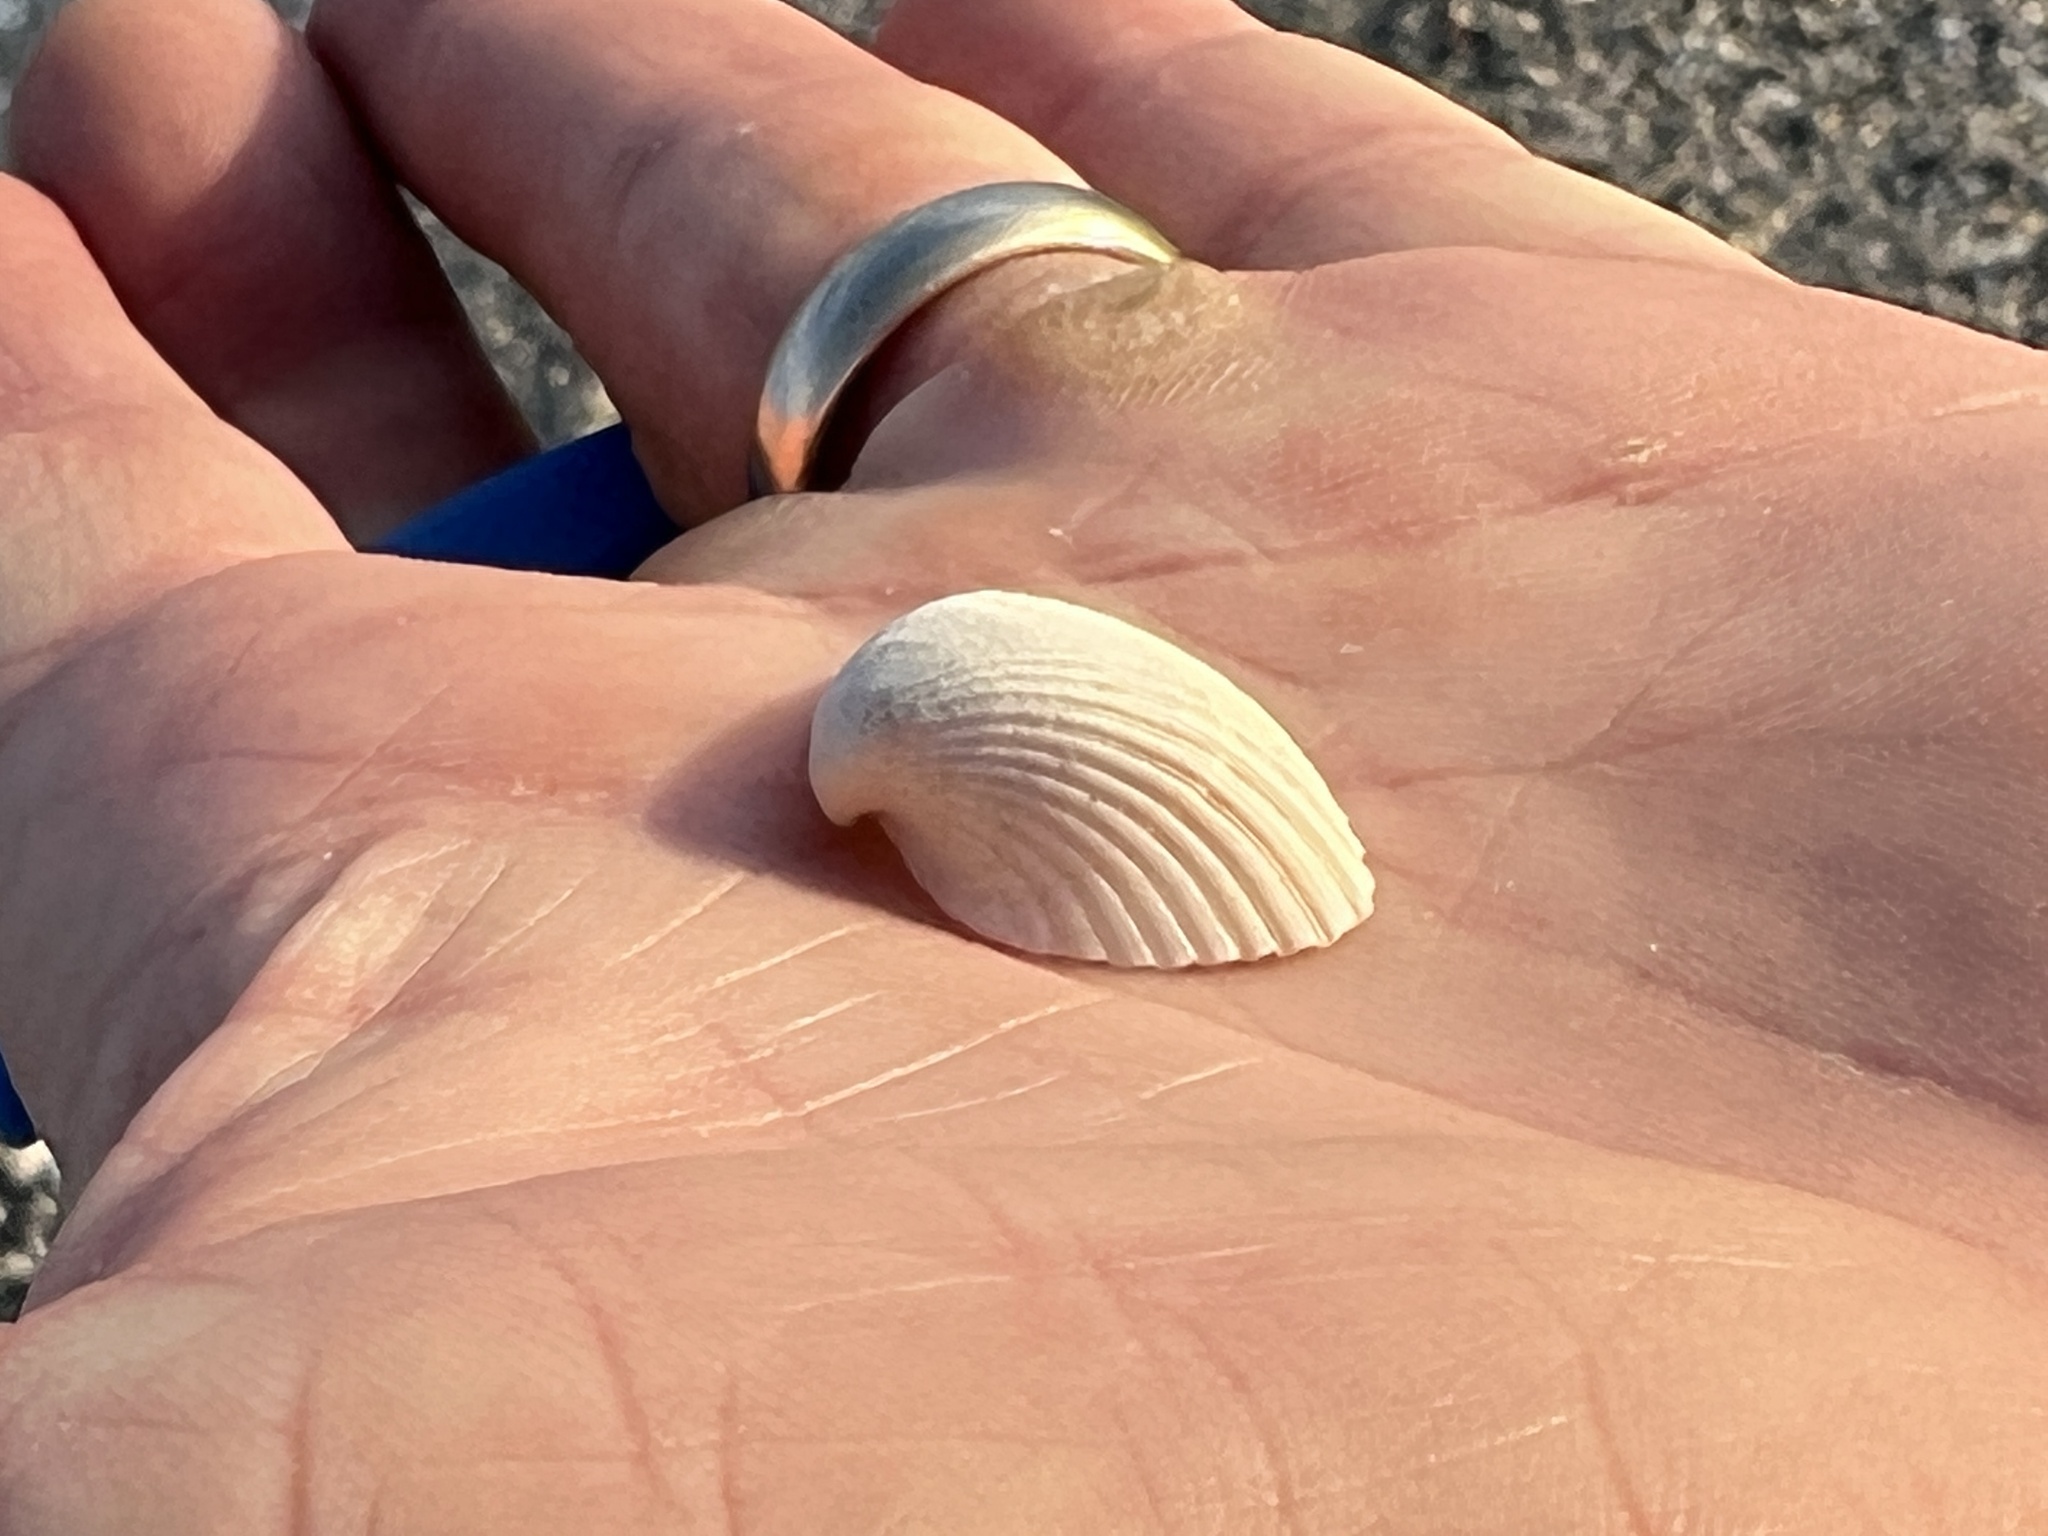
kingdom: Animalia
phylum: Mollusca
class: Bivalvia
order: Arcida
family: Noetiidae
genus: Noetia
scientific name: Noetia ponderosa
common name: Ponderous ark
